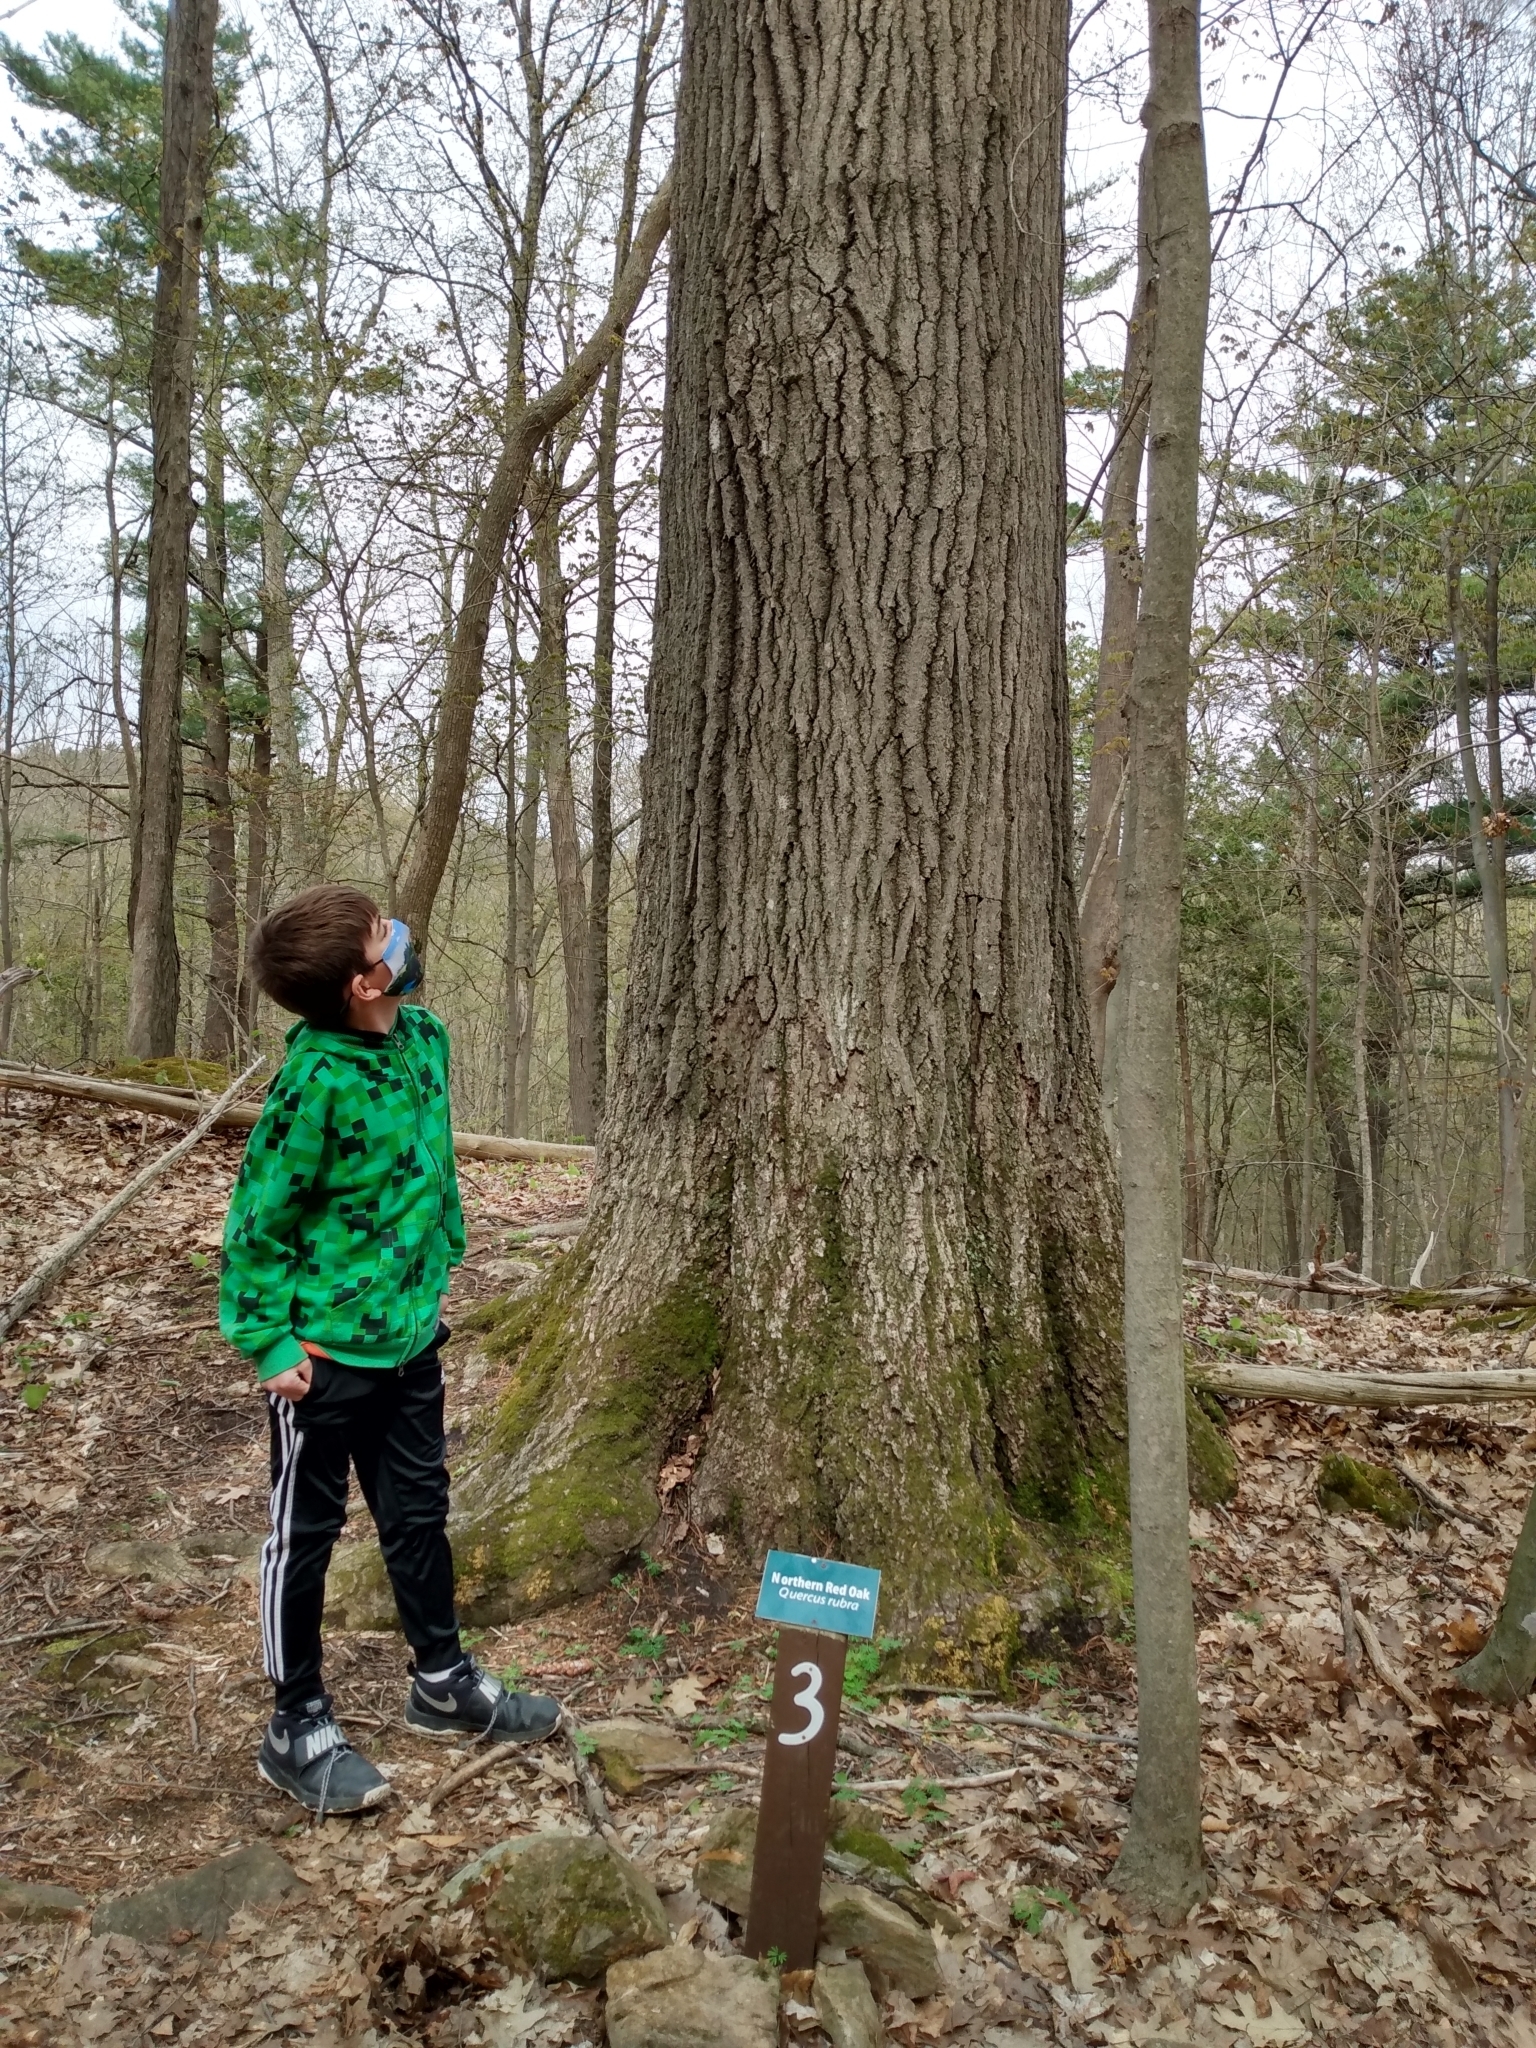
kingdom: Plantae
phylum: Tracheophyta
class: Magnoliopsida
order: Fagales
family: Fagaceae
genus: Quercus
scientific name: Quercus rubra
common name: Red oak
